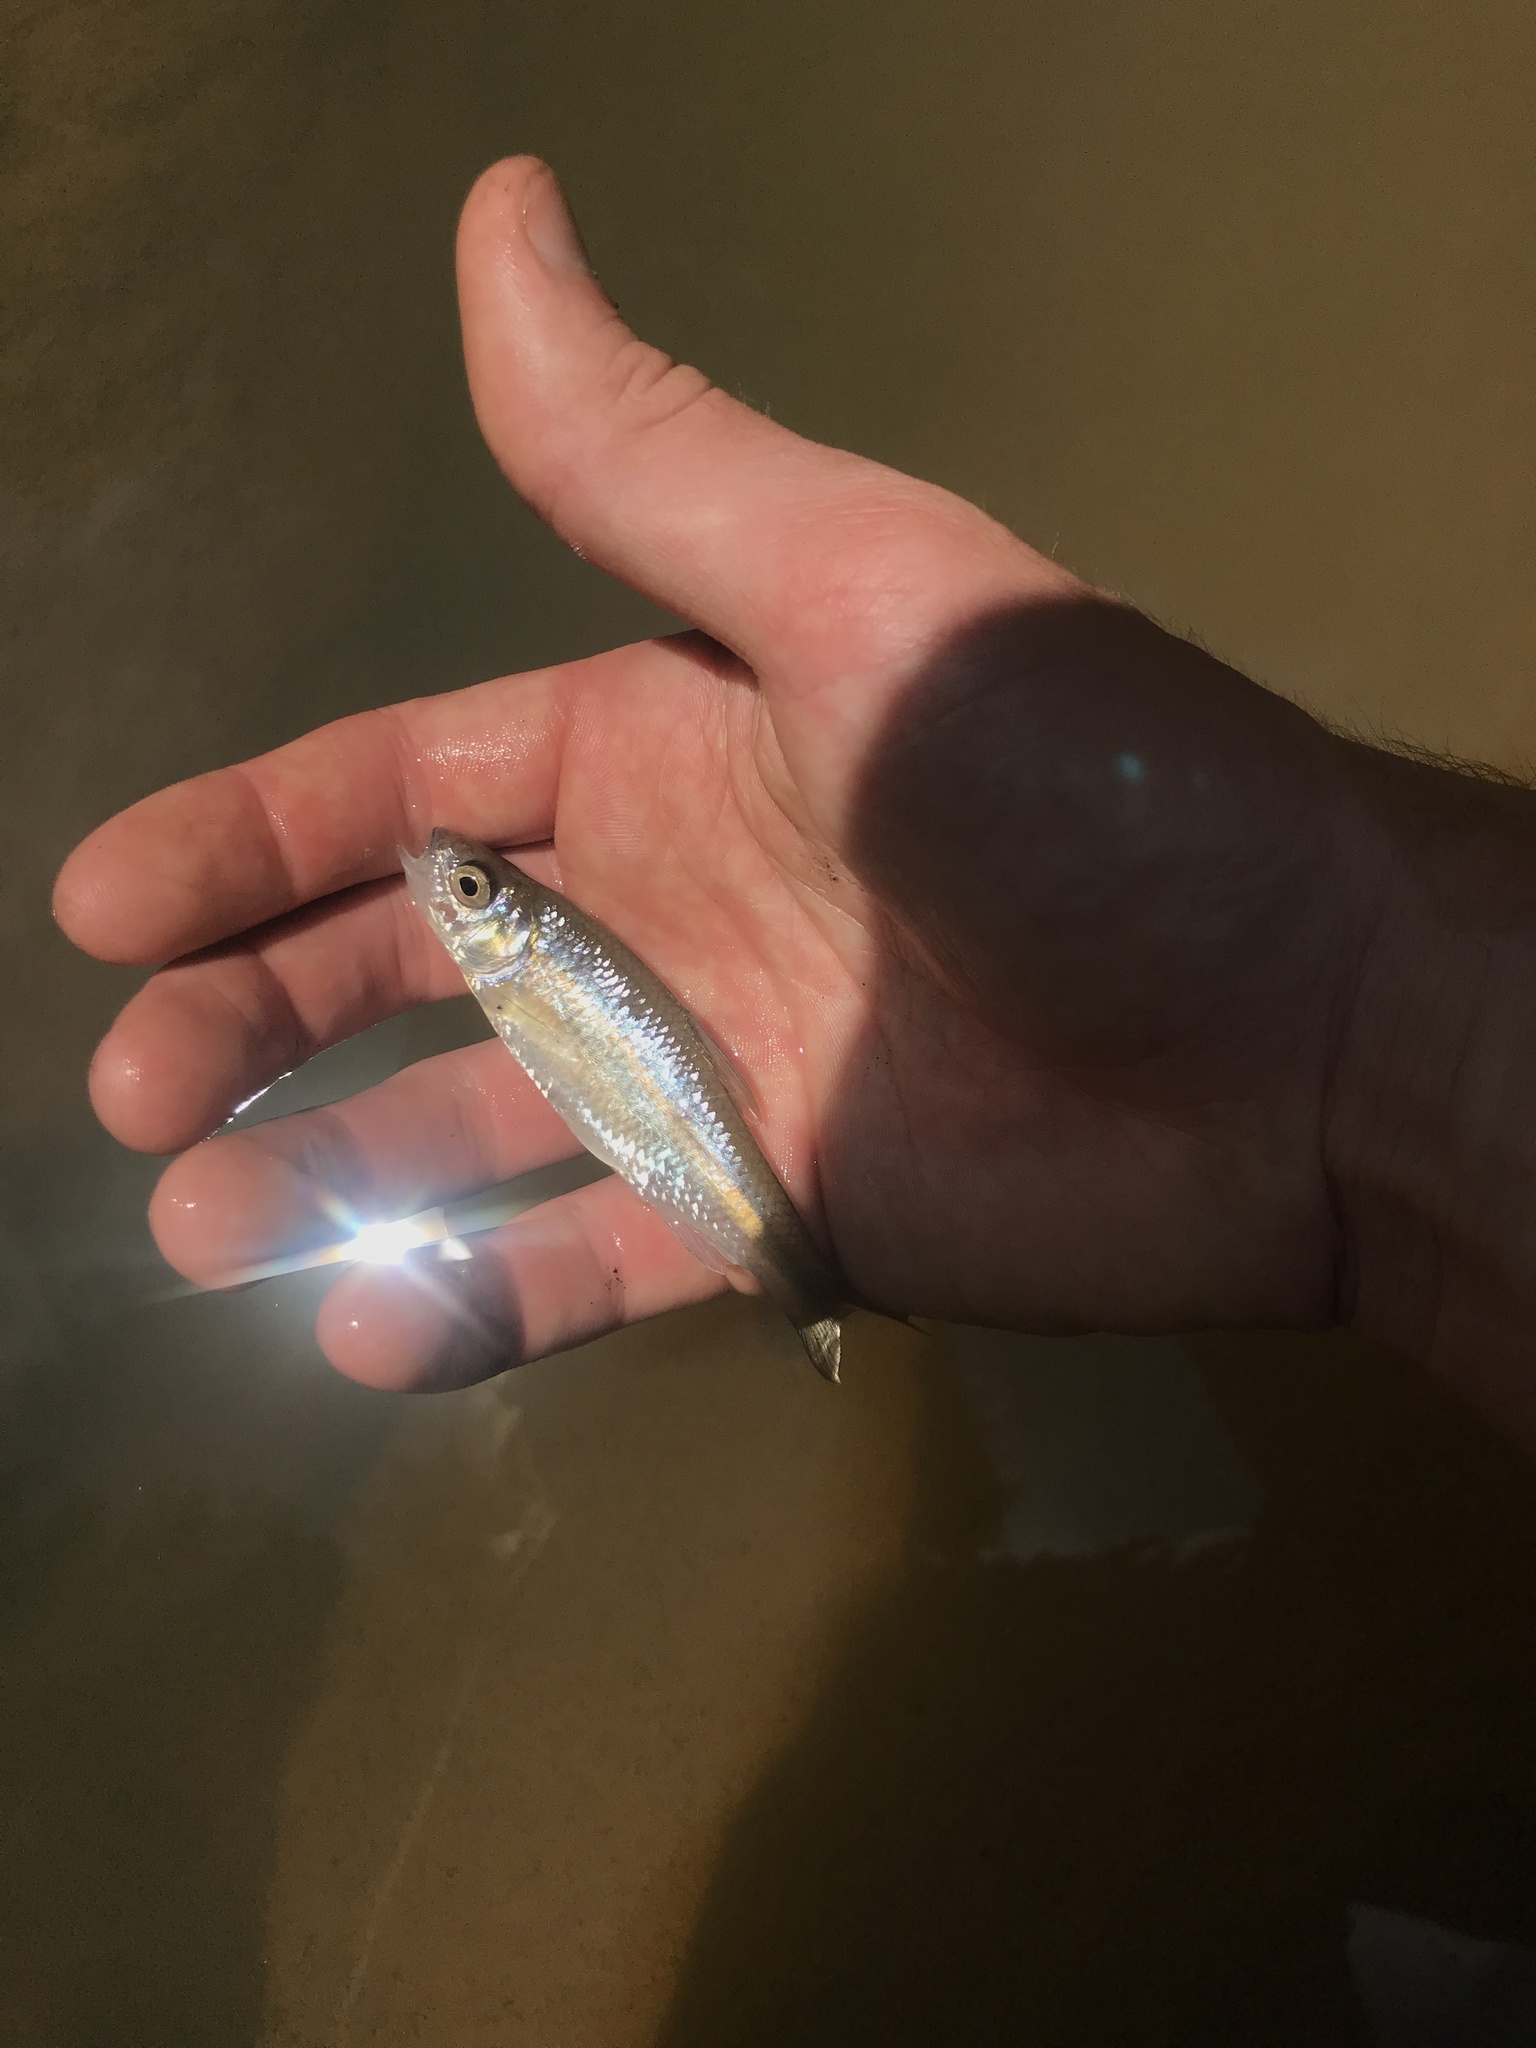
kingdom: Animalia
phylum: Chordata
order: Cypriniformes
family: Cyprinidae
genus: Luxilus
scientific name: Luxilus albeolus
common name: White shiner
